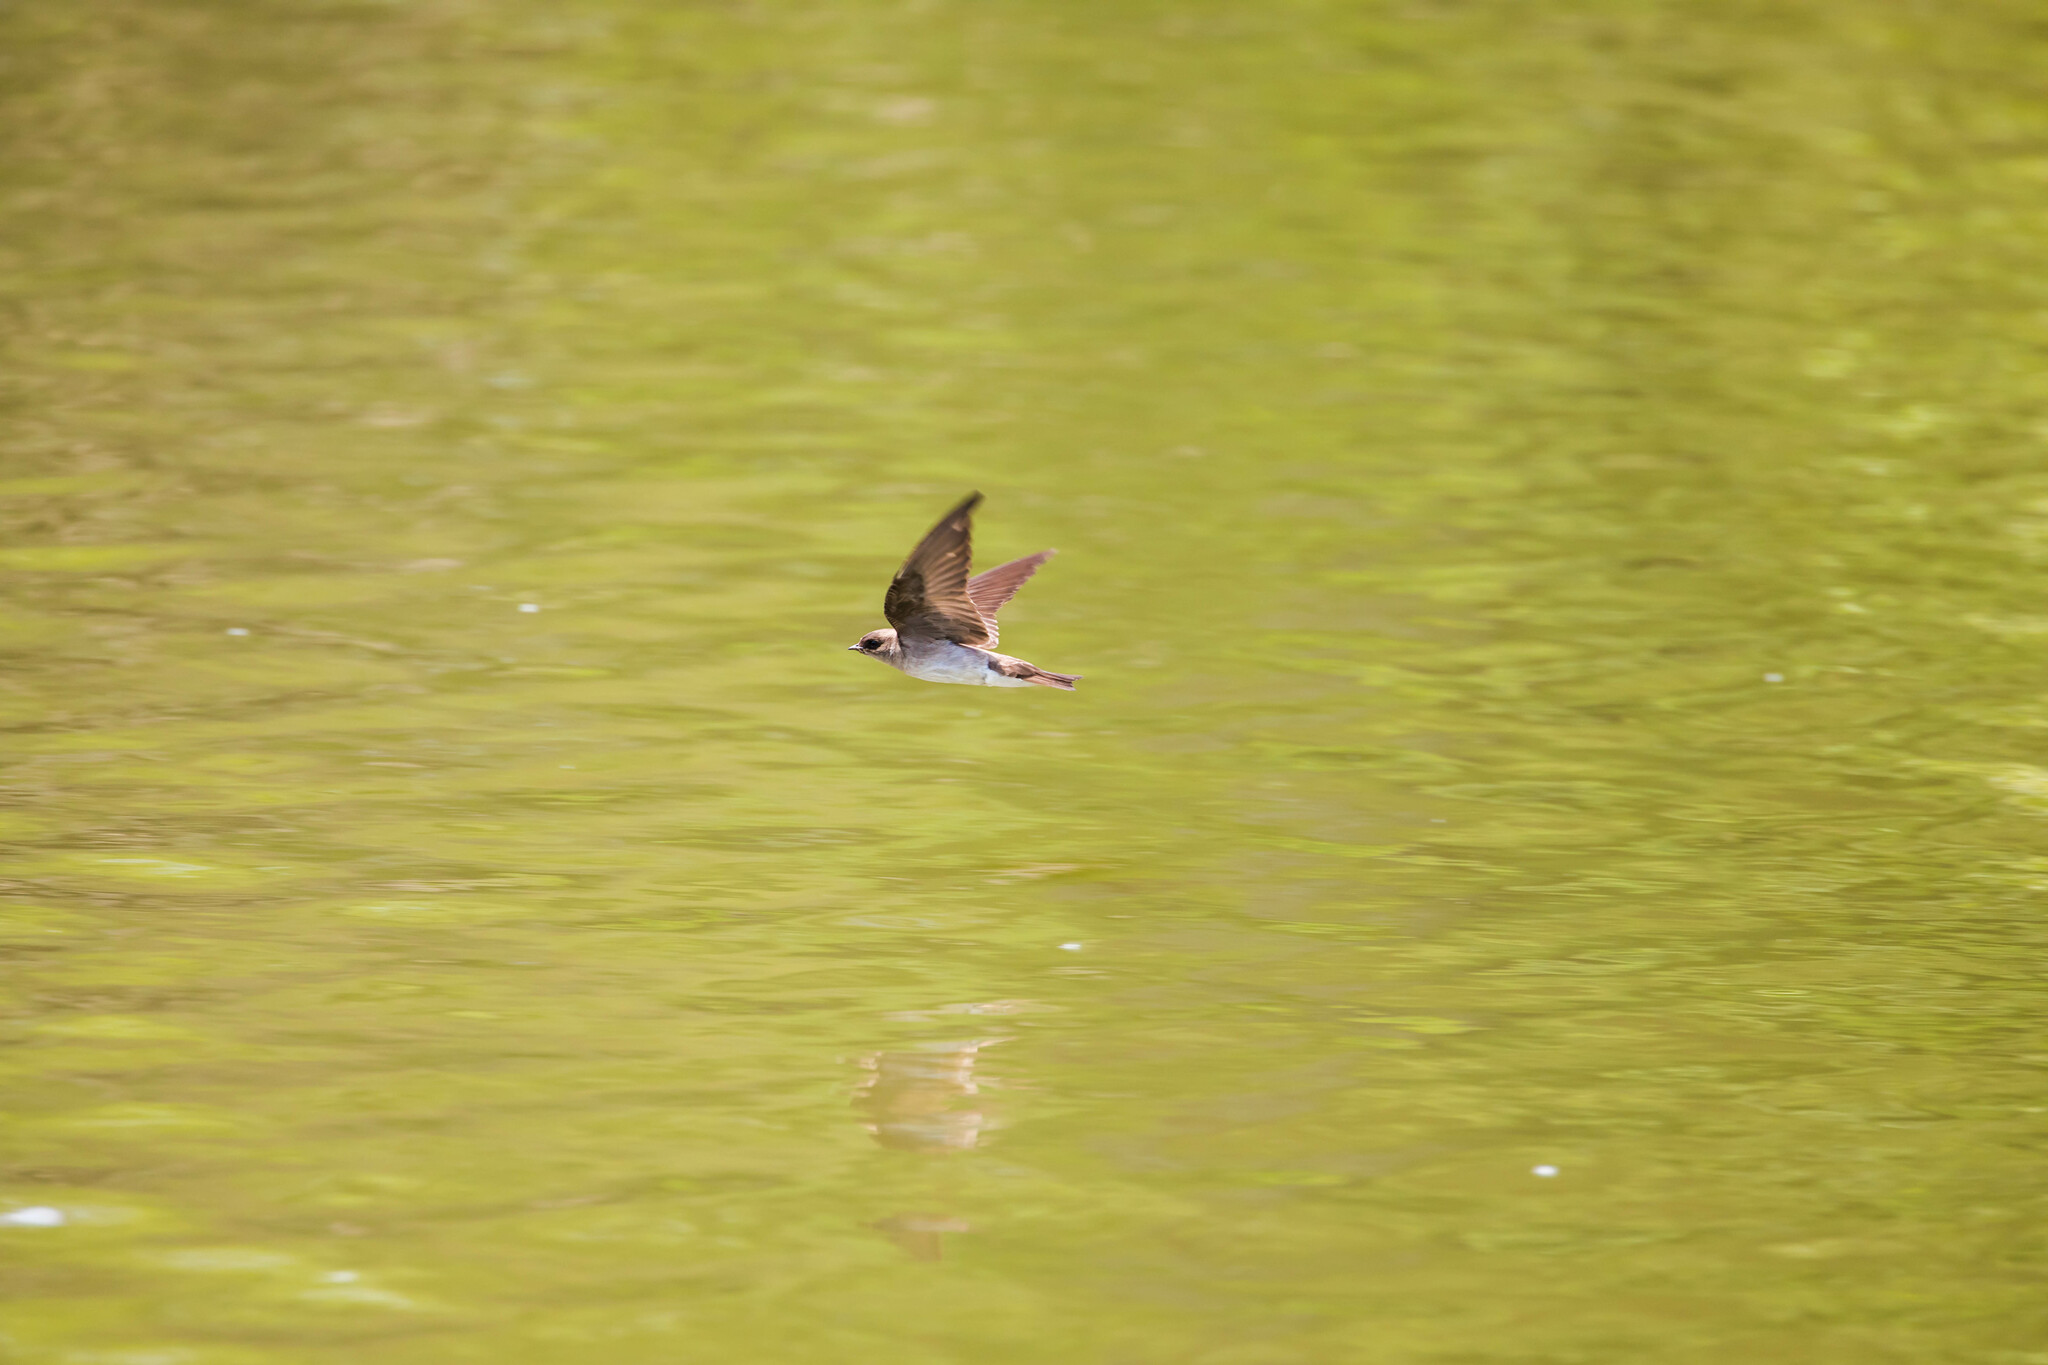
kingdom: Animalia
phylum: Chordata
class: Aves
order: Passeriformes
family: Hirundinidae
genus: Stelgidopteryx
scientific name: Stelgidopteryx serripennis
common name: Northern rough-winged swallow
